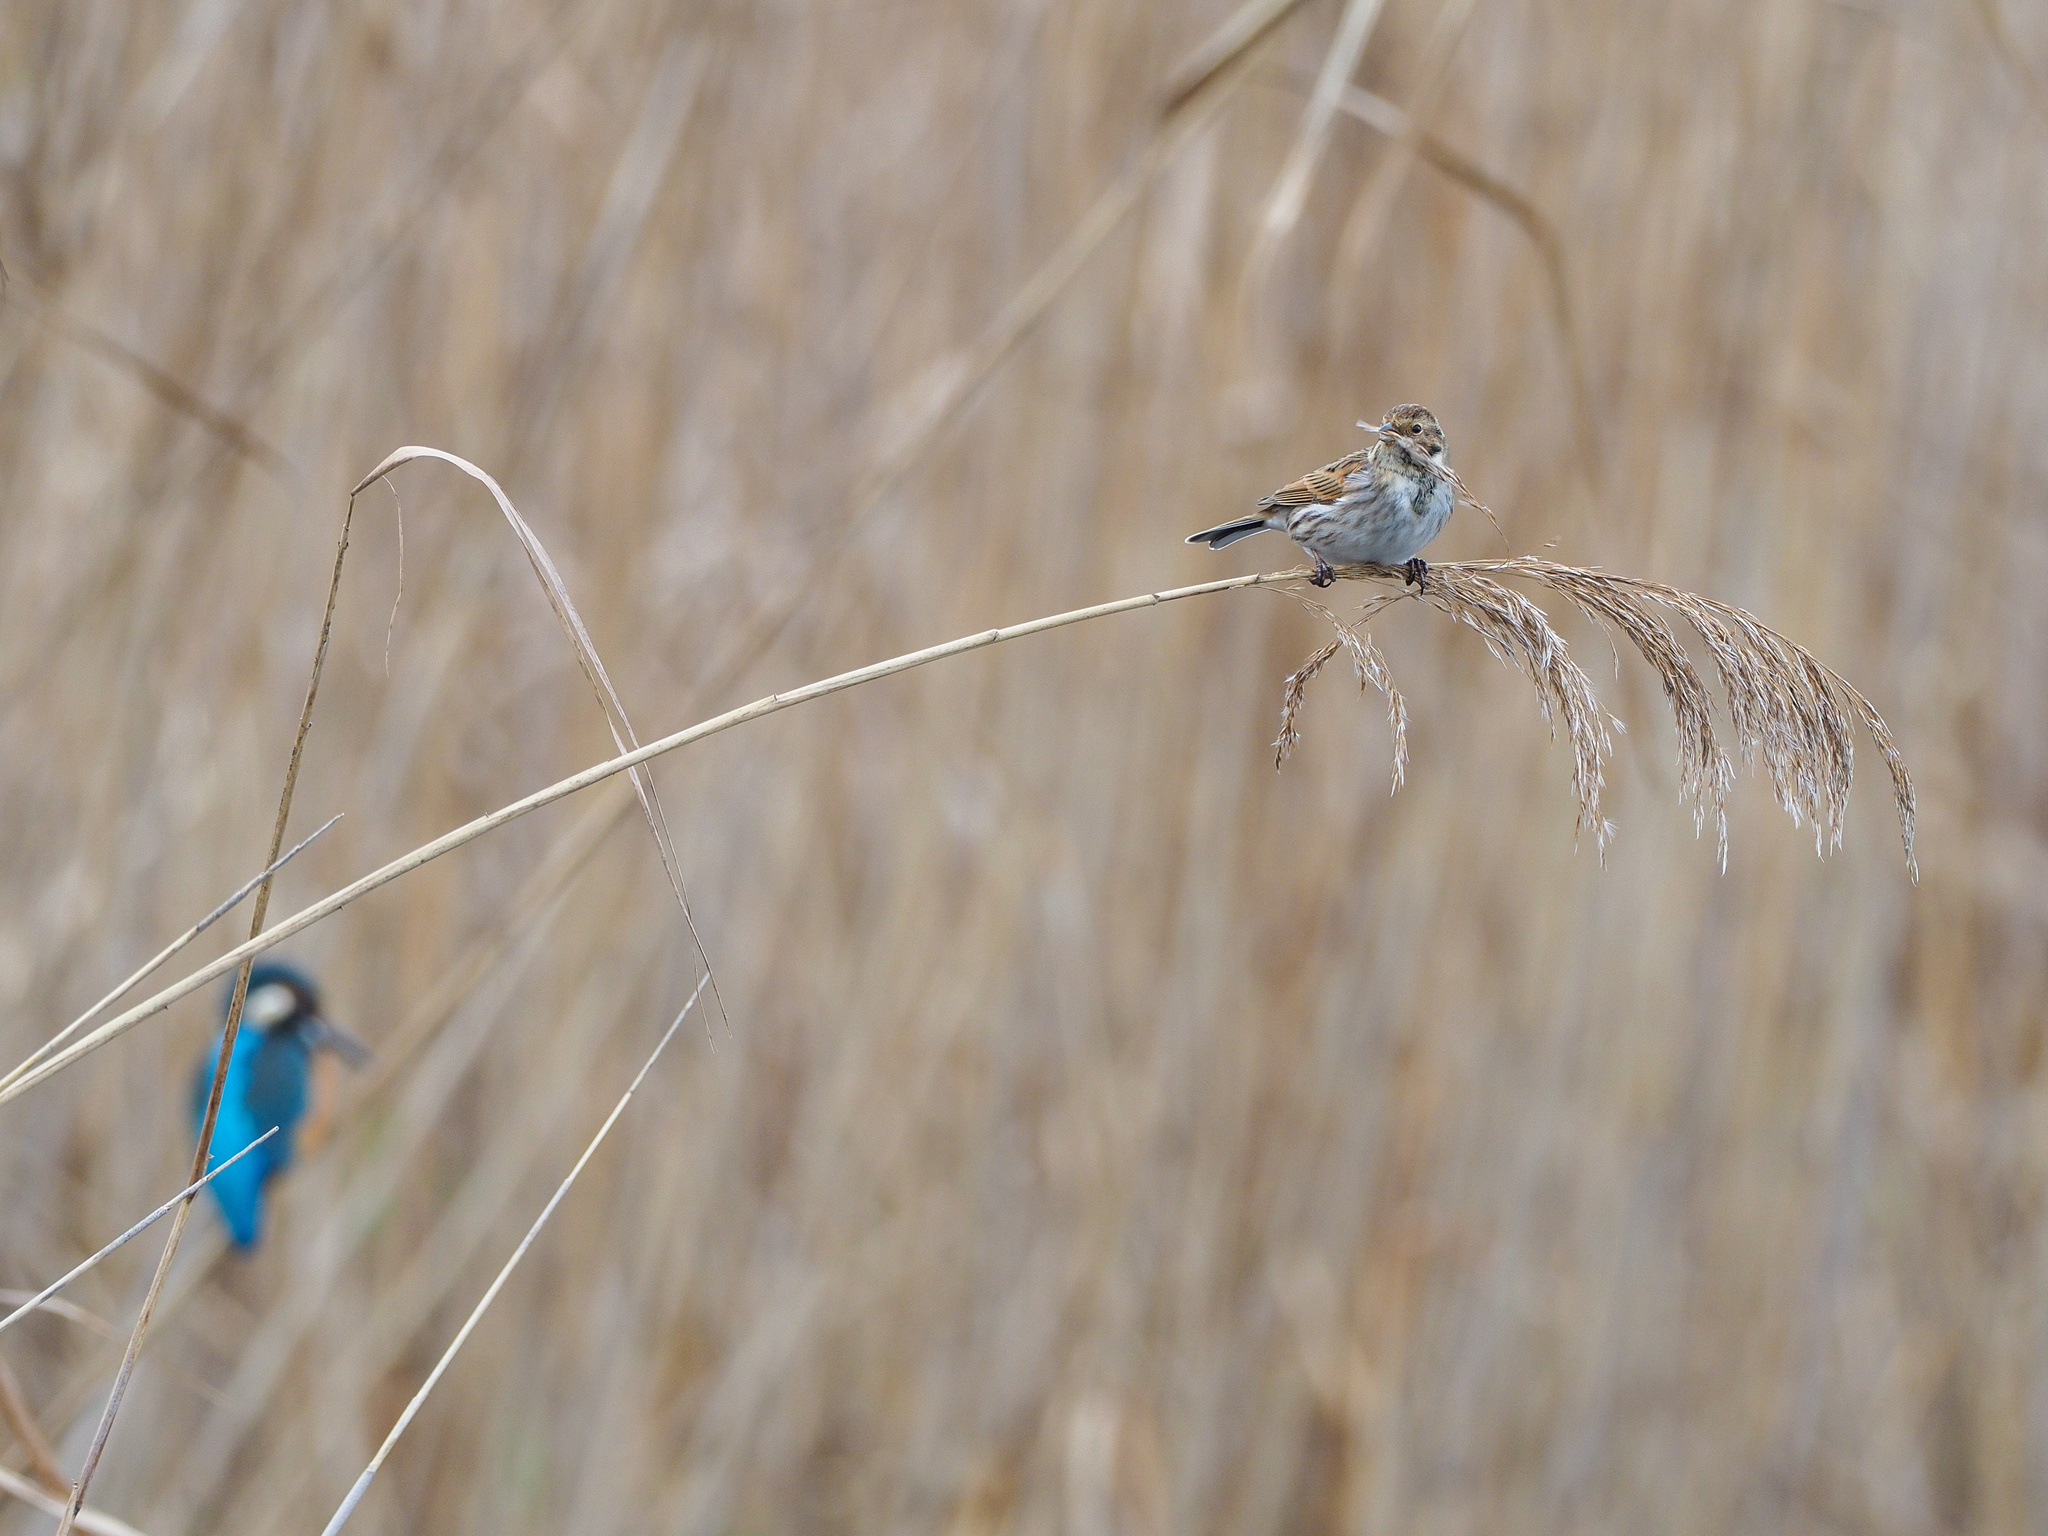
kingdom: Animalia
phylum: Chordata
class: Aves
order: Passeriformes
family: Emberizidae
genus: Emberiza
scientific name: Emberiza schoeniclus
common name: Reed bunting
